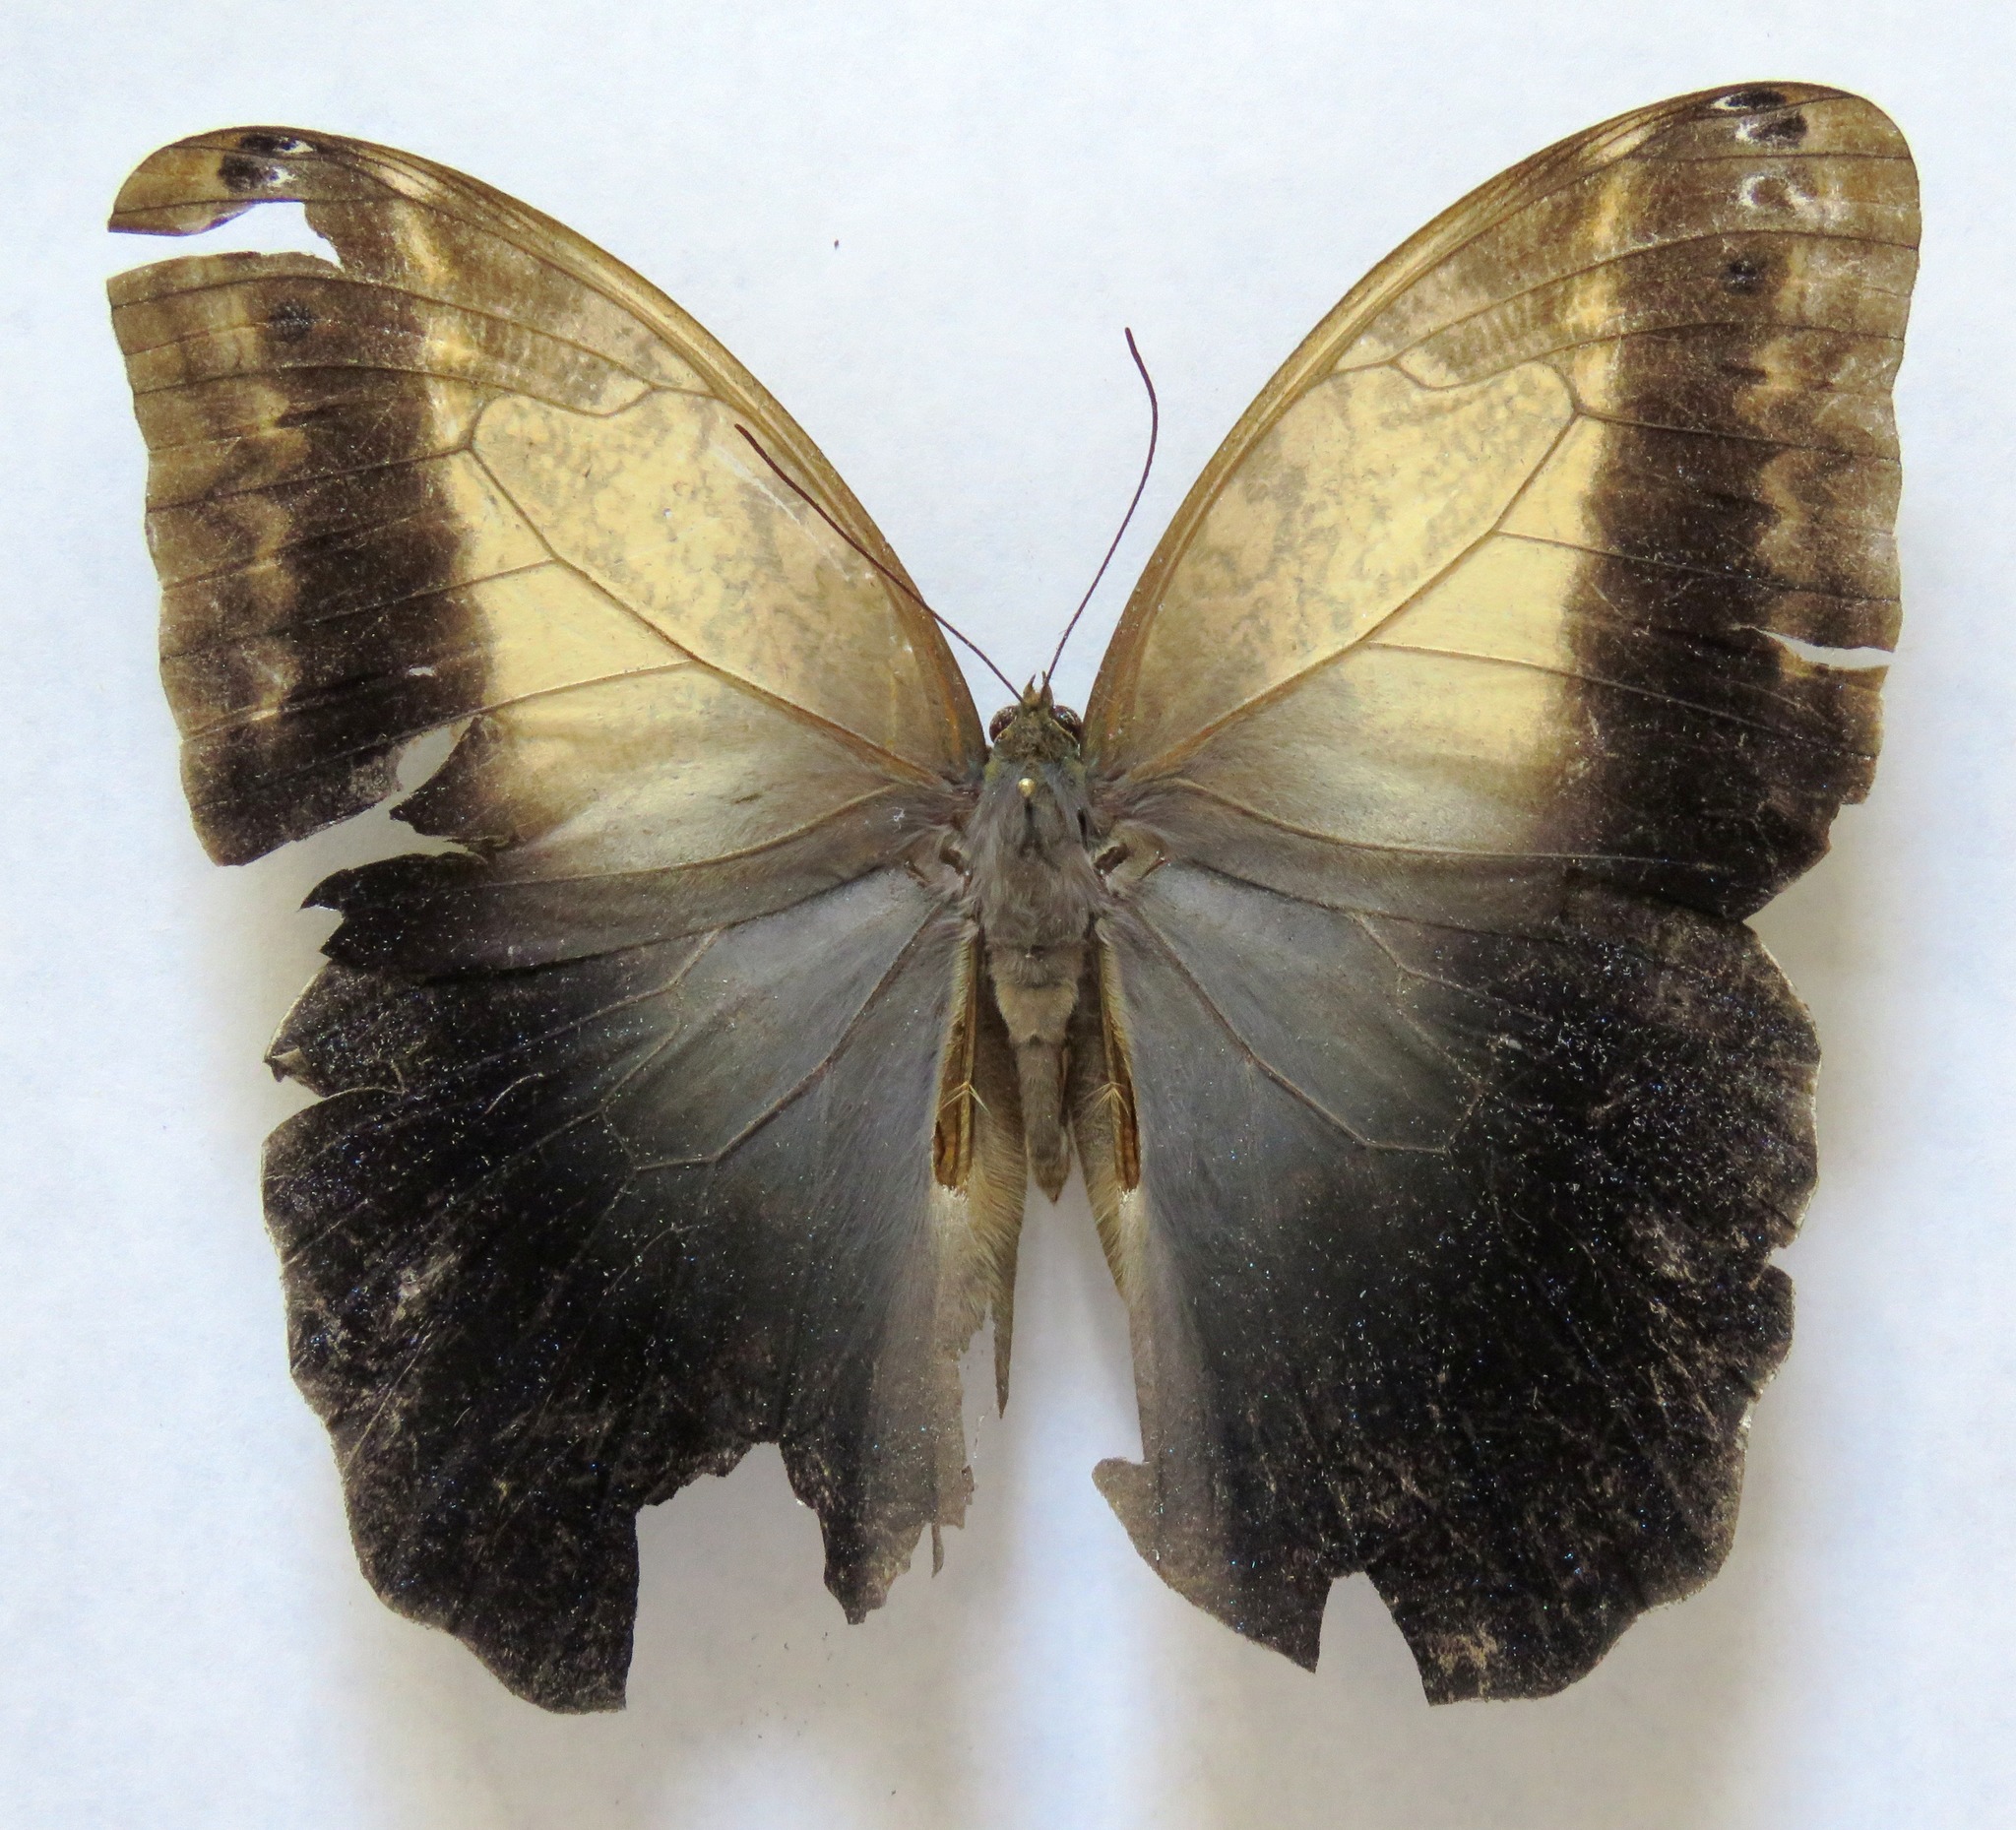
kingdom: Animalia
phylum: Arthropoda
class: Insecta
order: Lepidoptera
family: Nymphalidae
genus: Caligo
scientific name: Caligo telamonius
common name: Pale owl-butterfly
